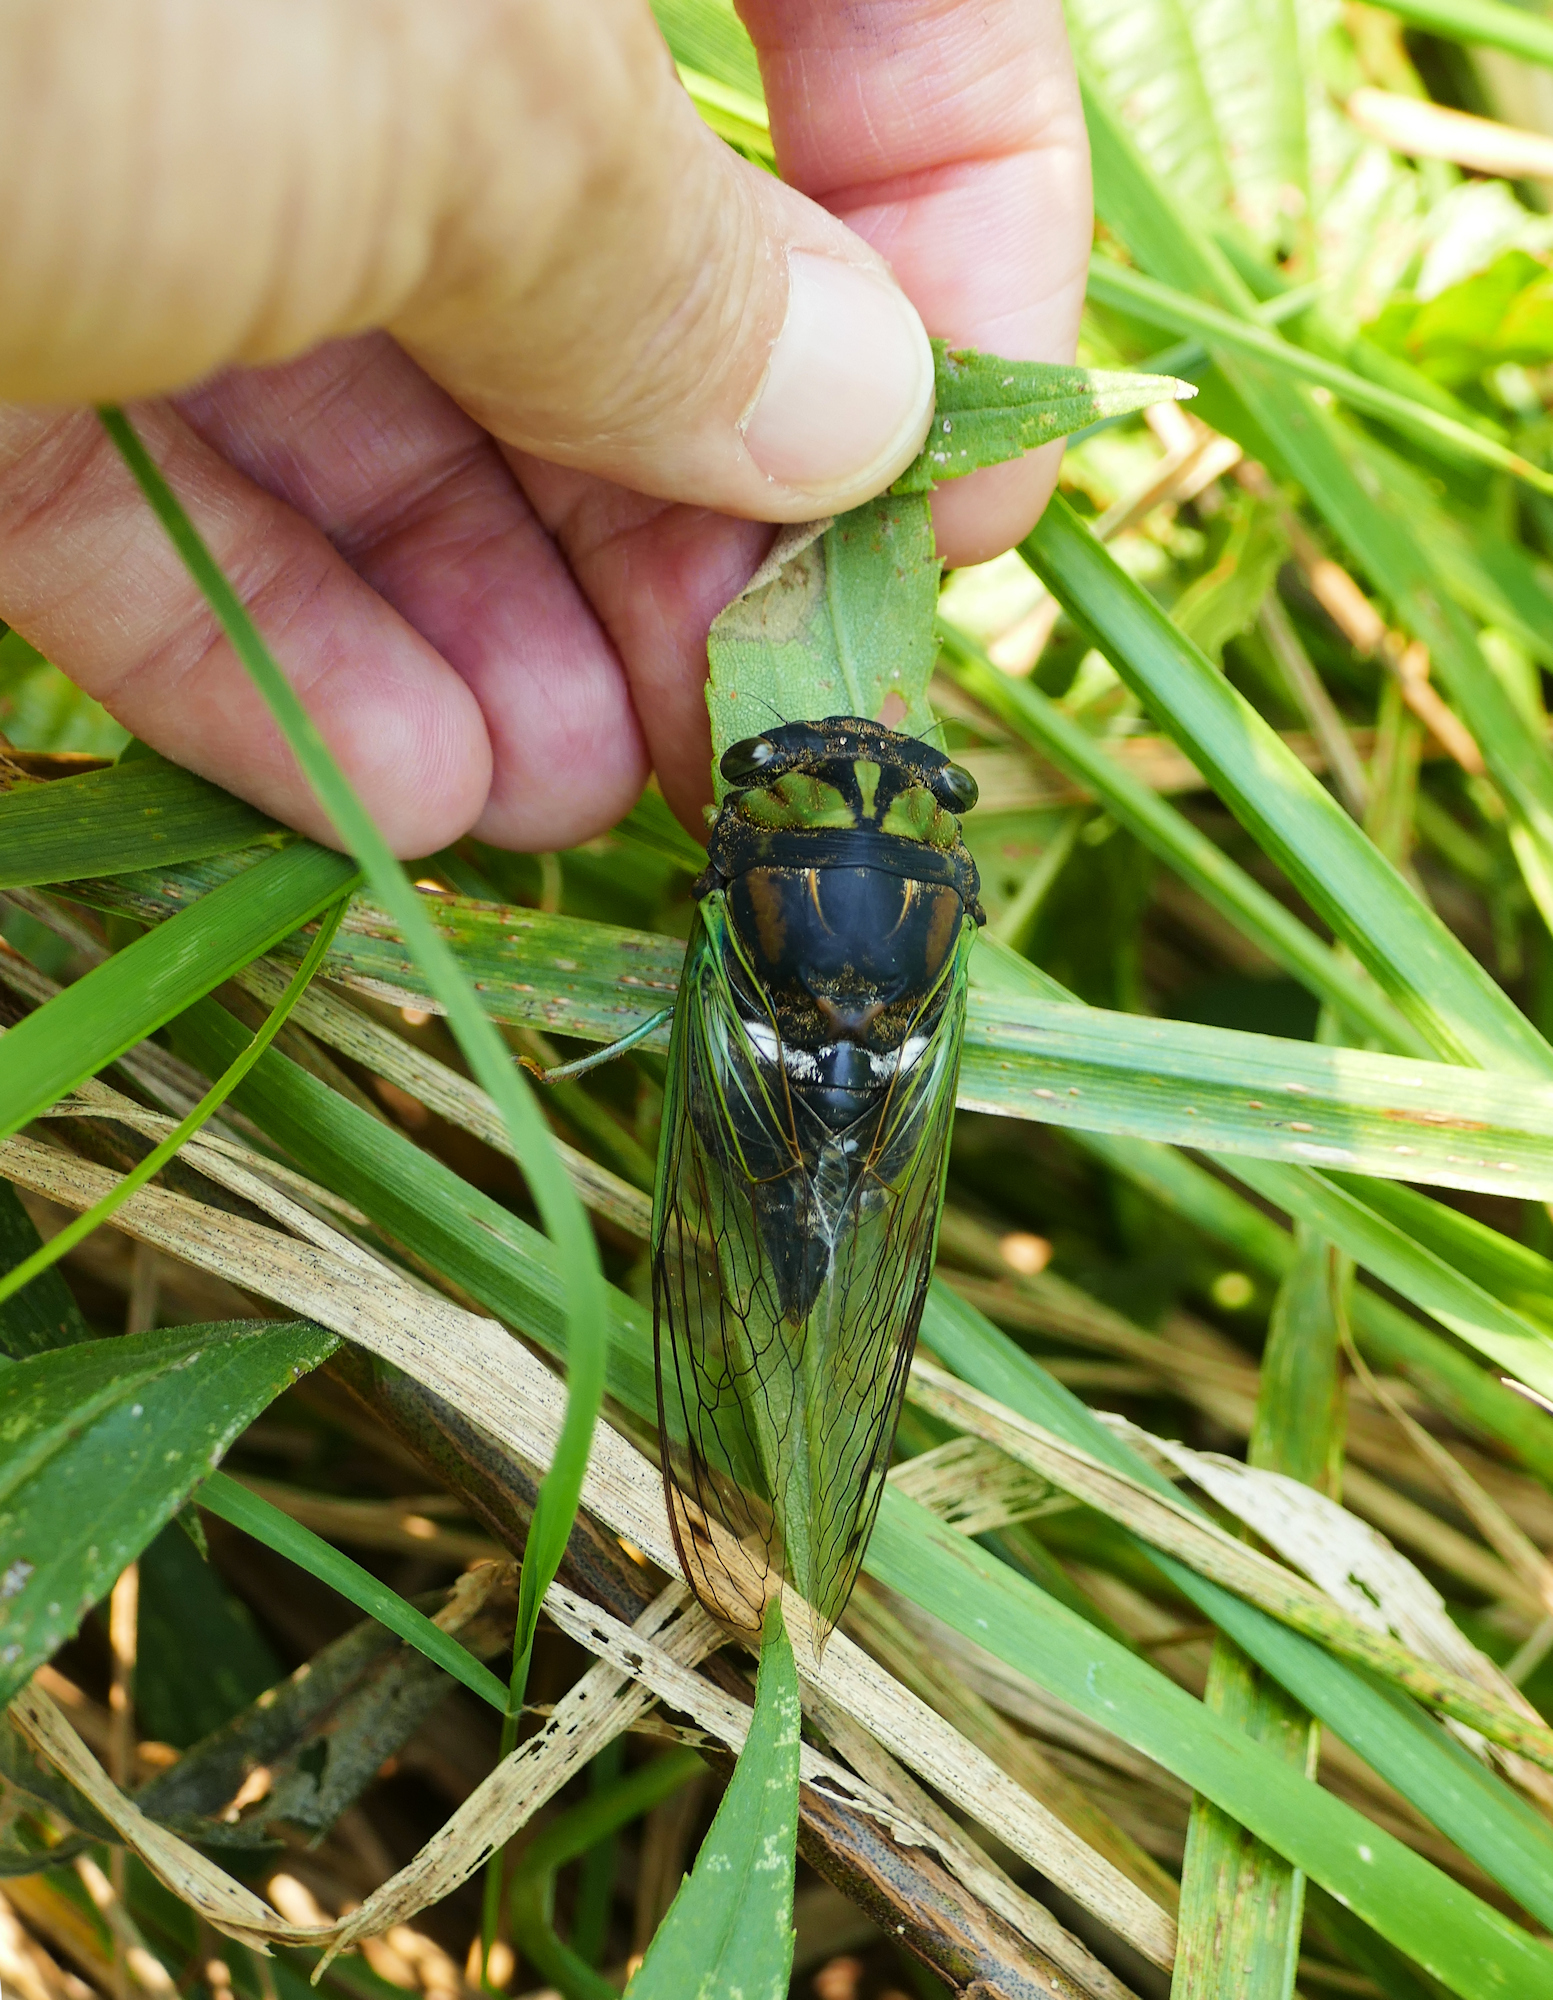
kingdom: Animalia
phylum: Arthropoda
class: Insecta
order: Hemiptera
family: Cicadidae
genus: Neotibicen
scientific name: Neotibicen tibicen
